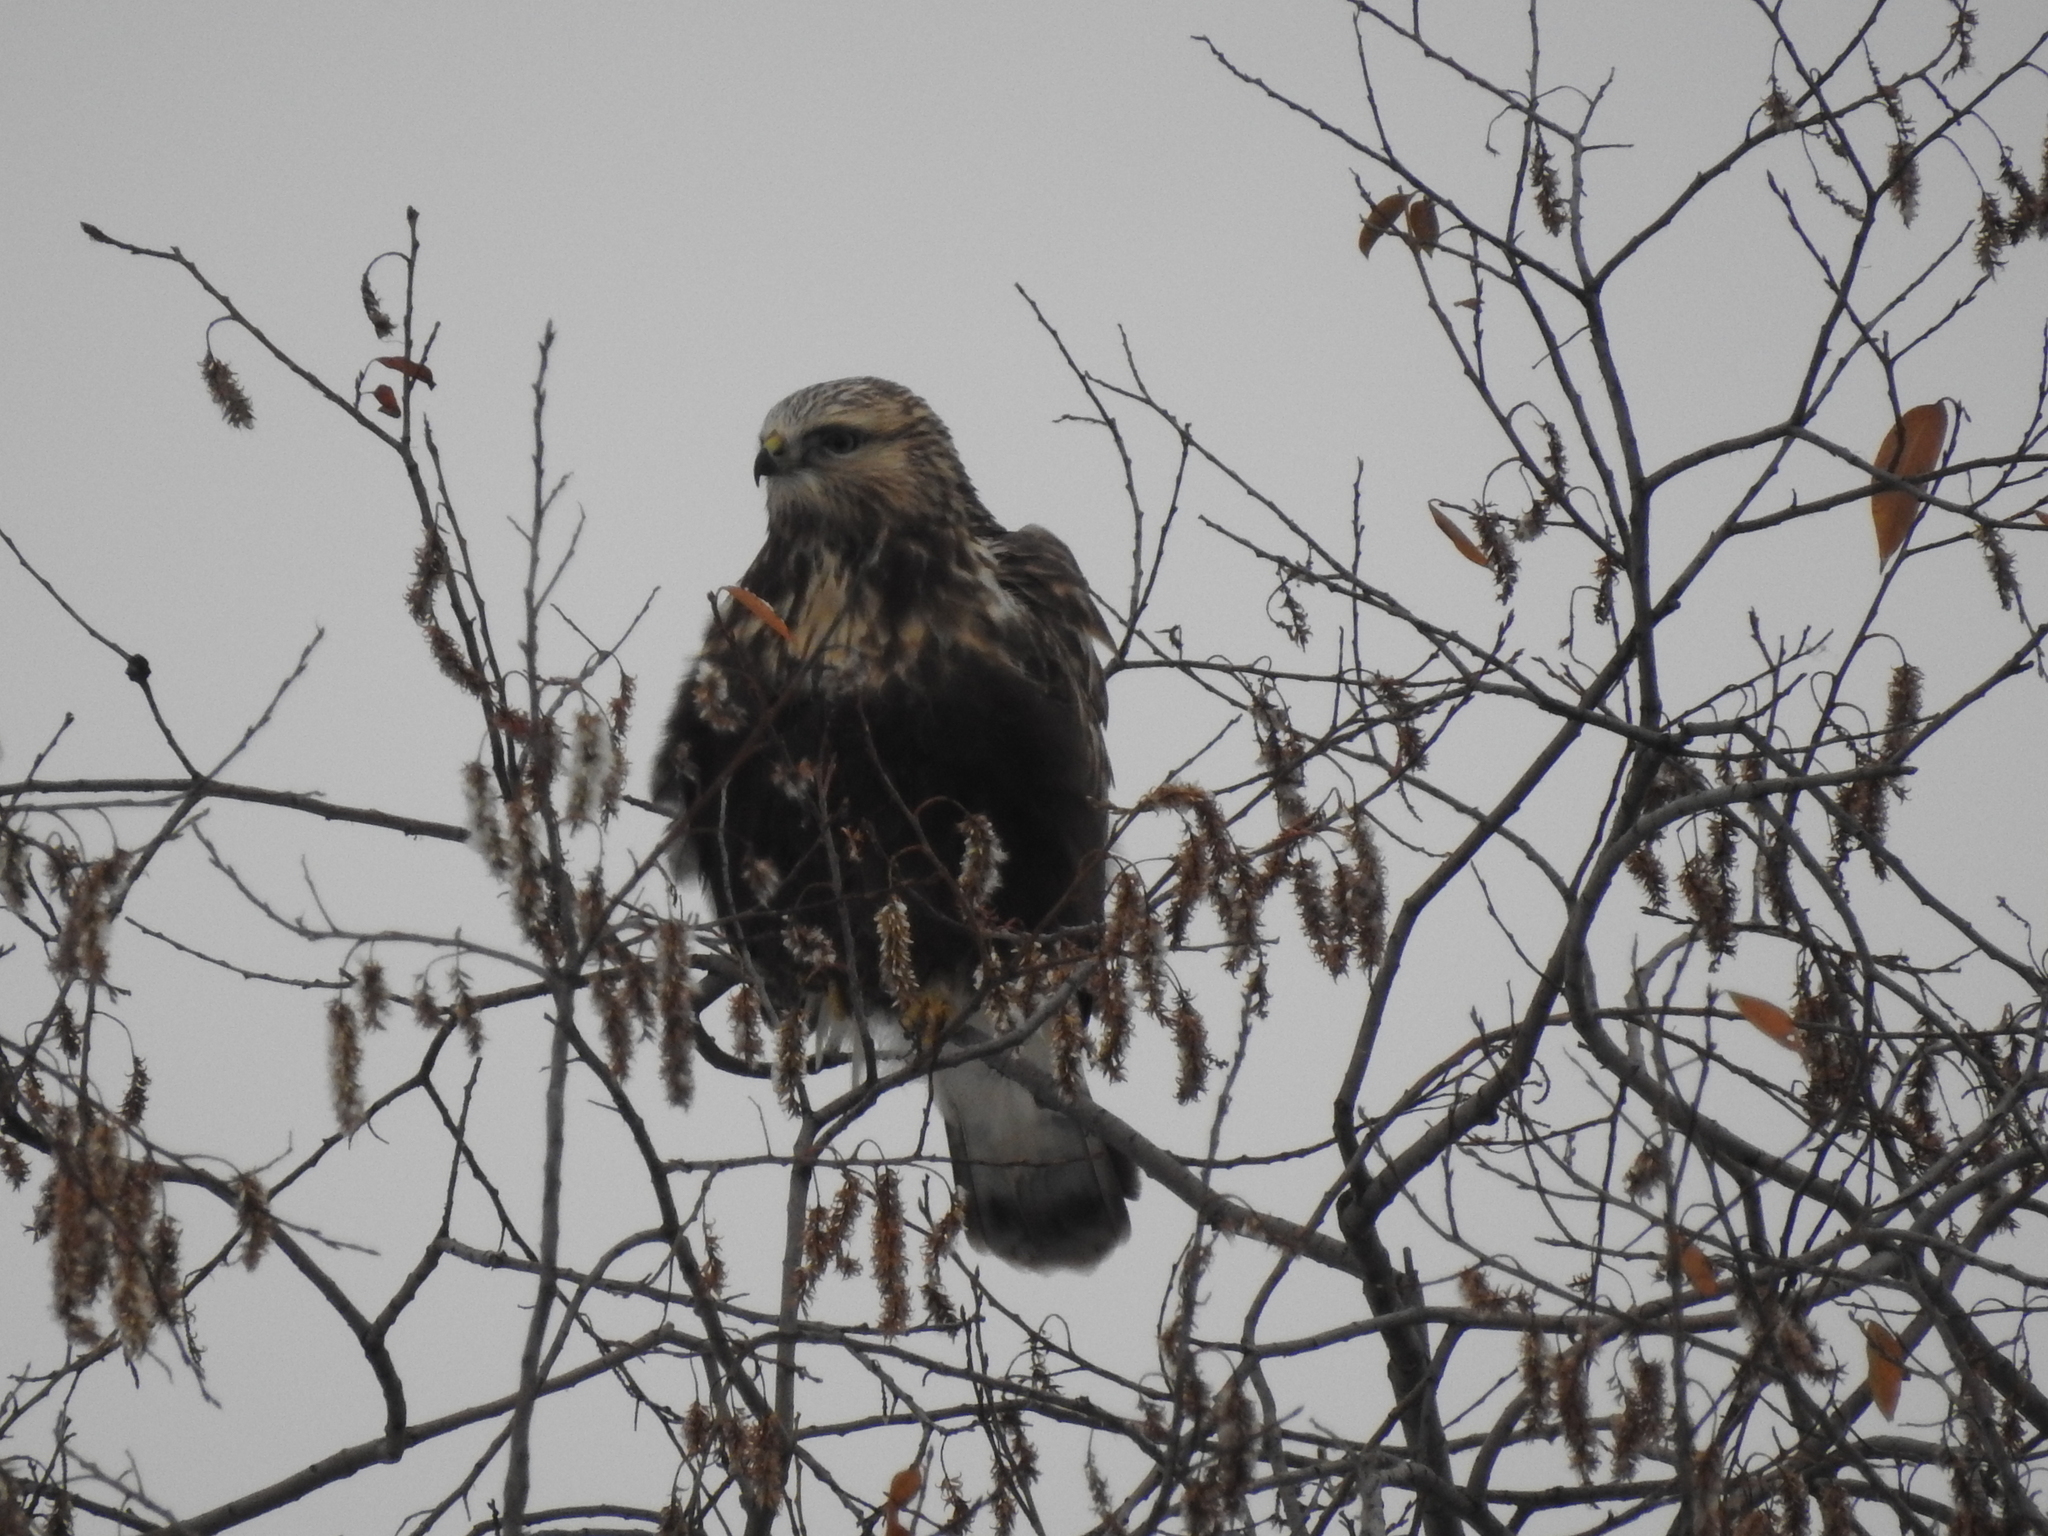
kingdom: Animalia
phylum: Chordata
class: Aves
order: Accipitriformes
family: Accipitridae
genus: Buteo
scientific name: Buteo lagopus
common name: Rough-legged buzzard
